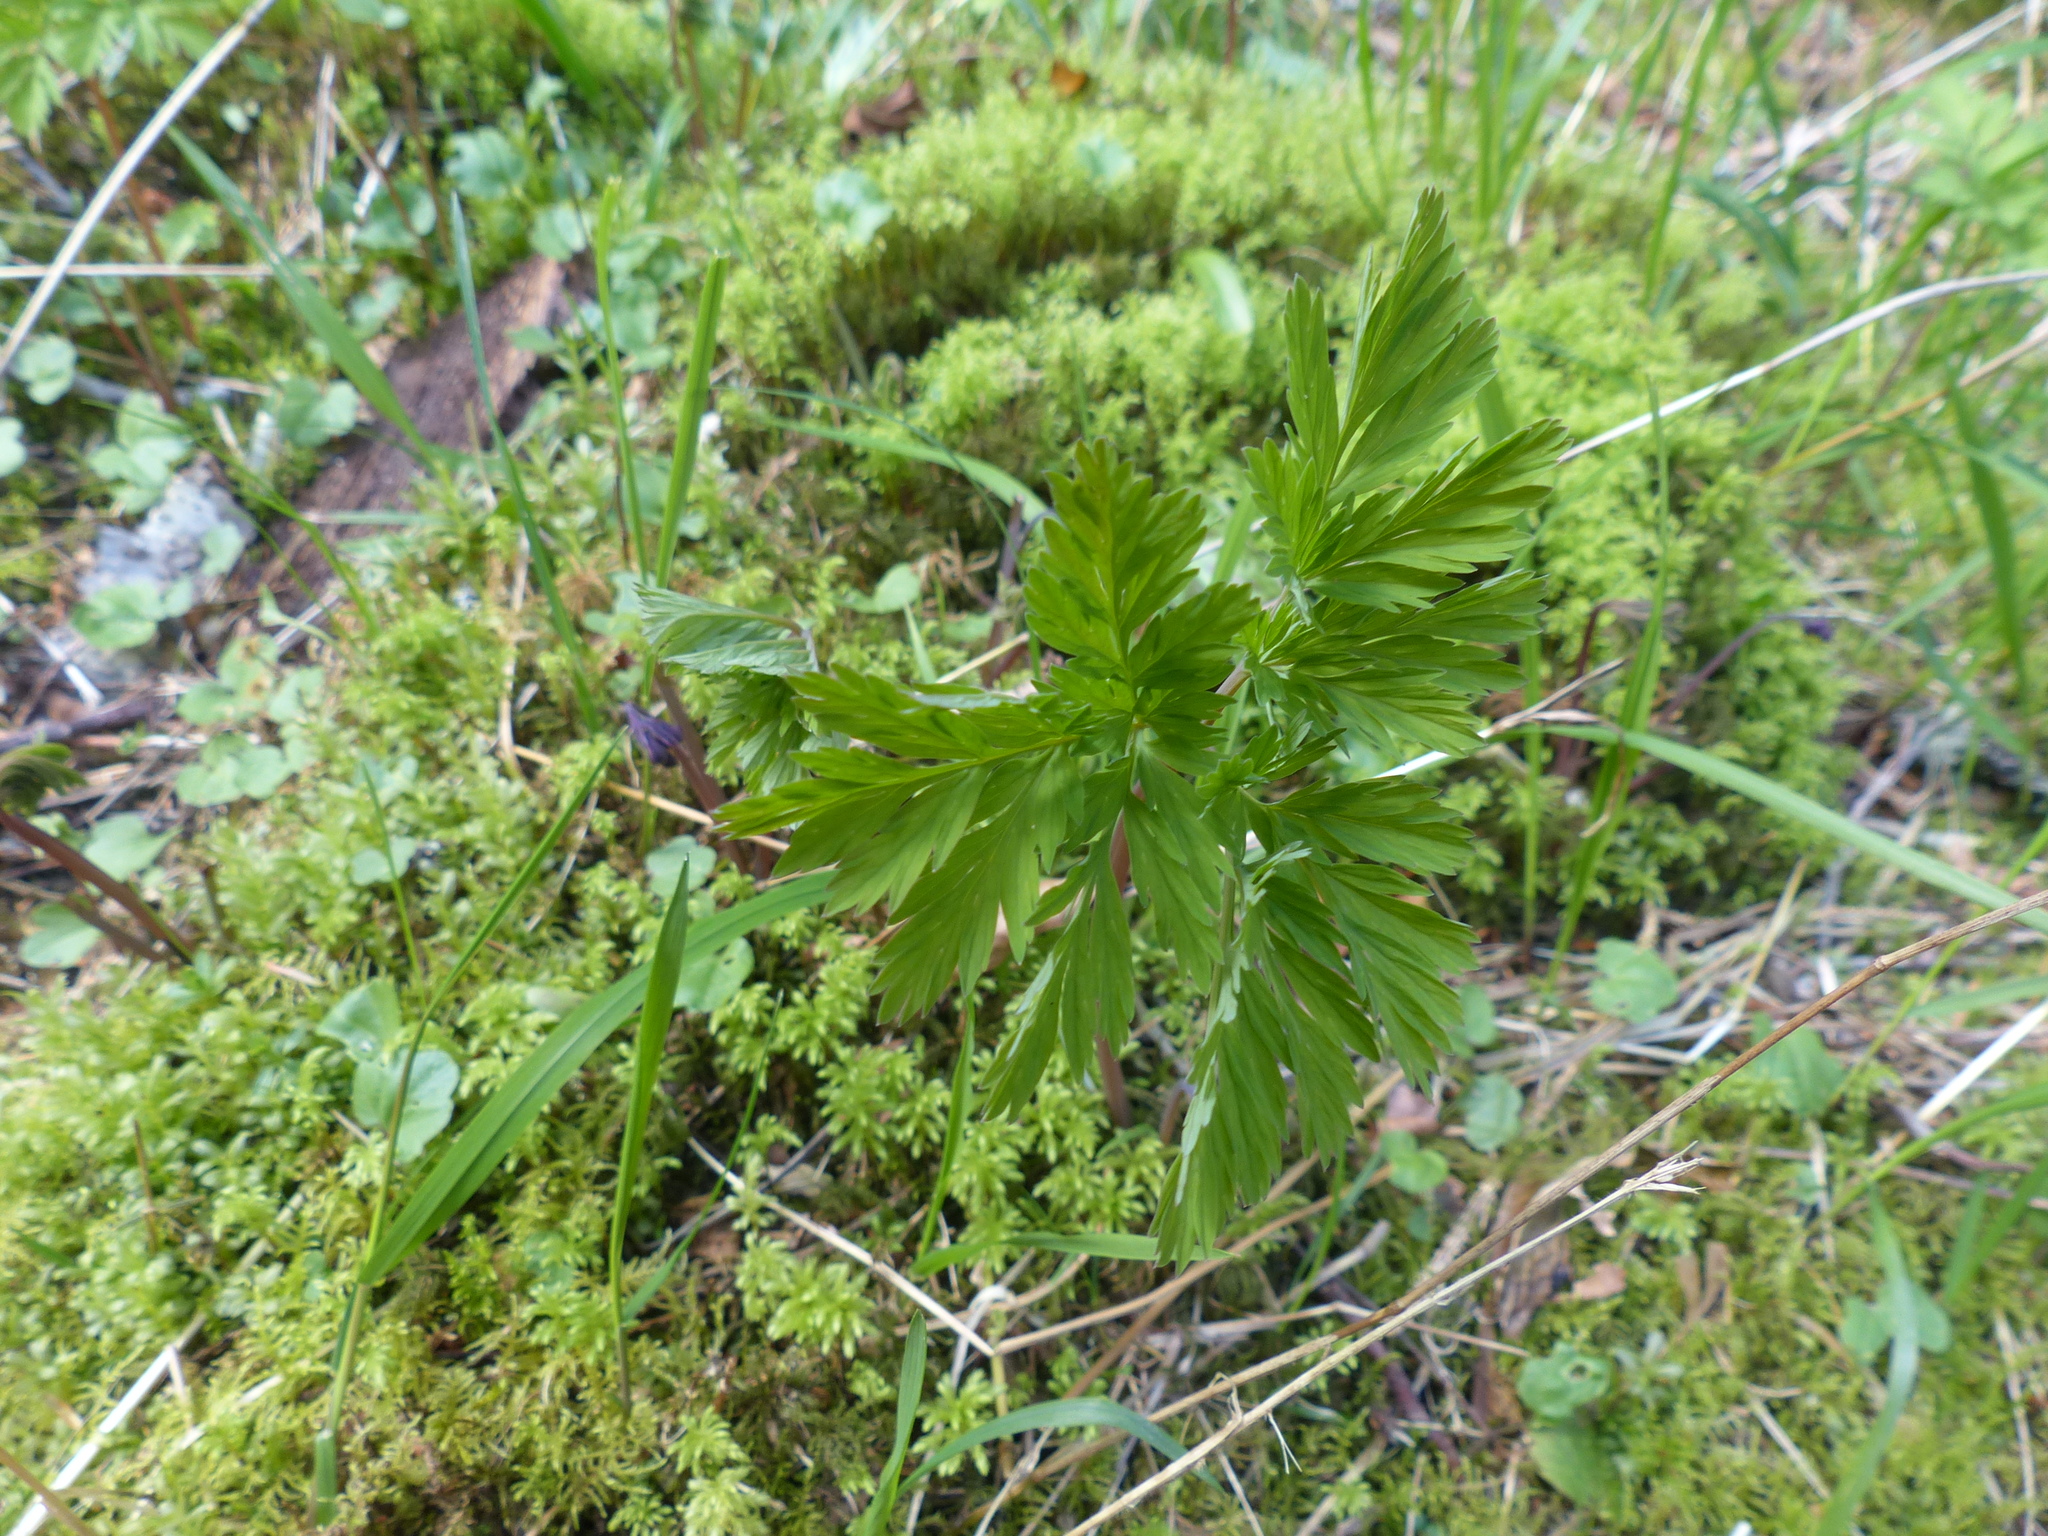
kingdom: Plantae
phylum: Tracheophyta
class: Magnoliopsida
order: Ranunculales
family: Papaveraceae
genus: Dicentra
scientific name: Dicentra formosa
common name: Bleeding-heart
